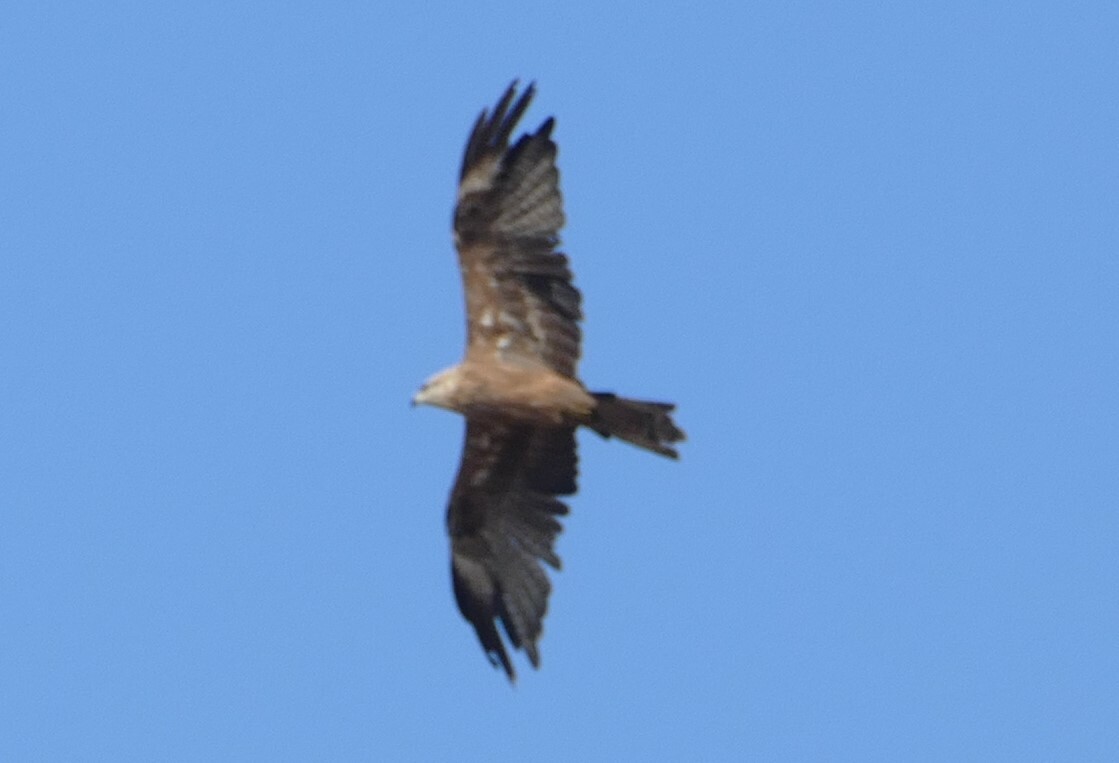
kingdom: Animalia
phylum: Chordata
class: Aves
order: Accipitriformes
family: Accipitridae
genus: Milvus
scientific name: Milvus migrans
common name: Black kite
